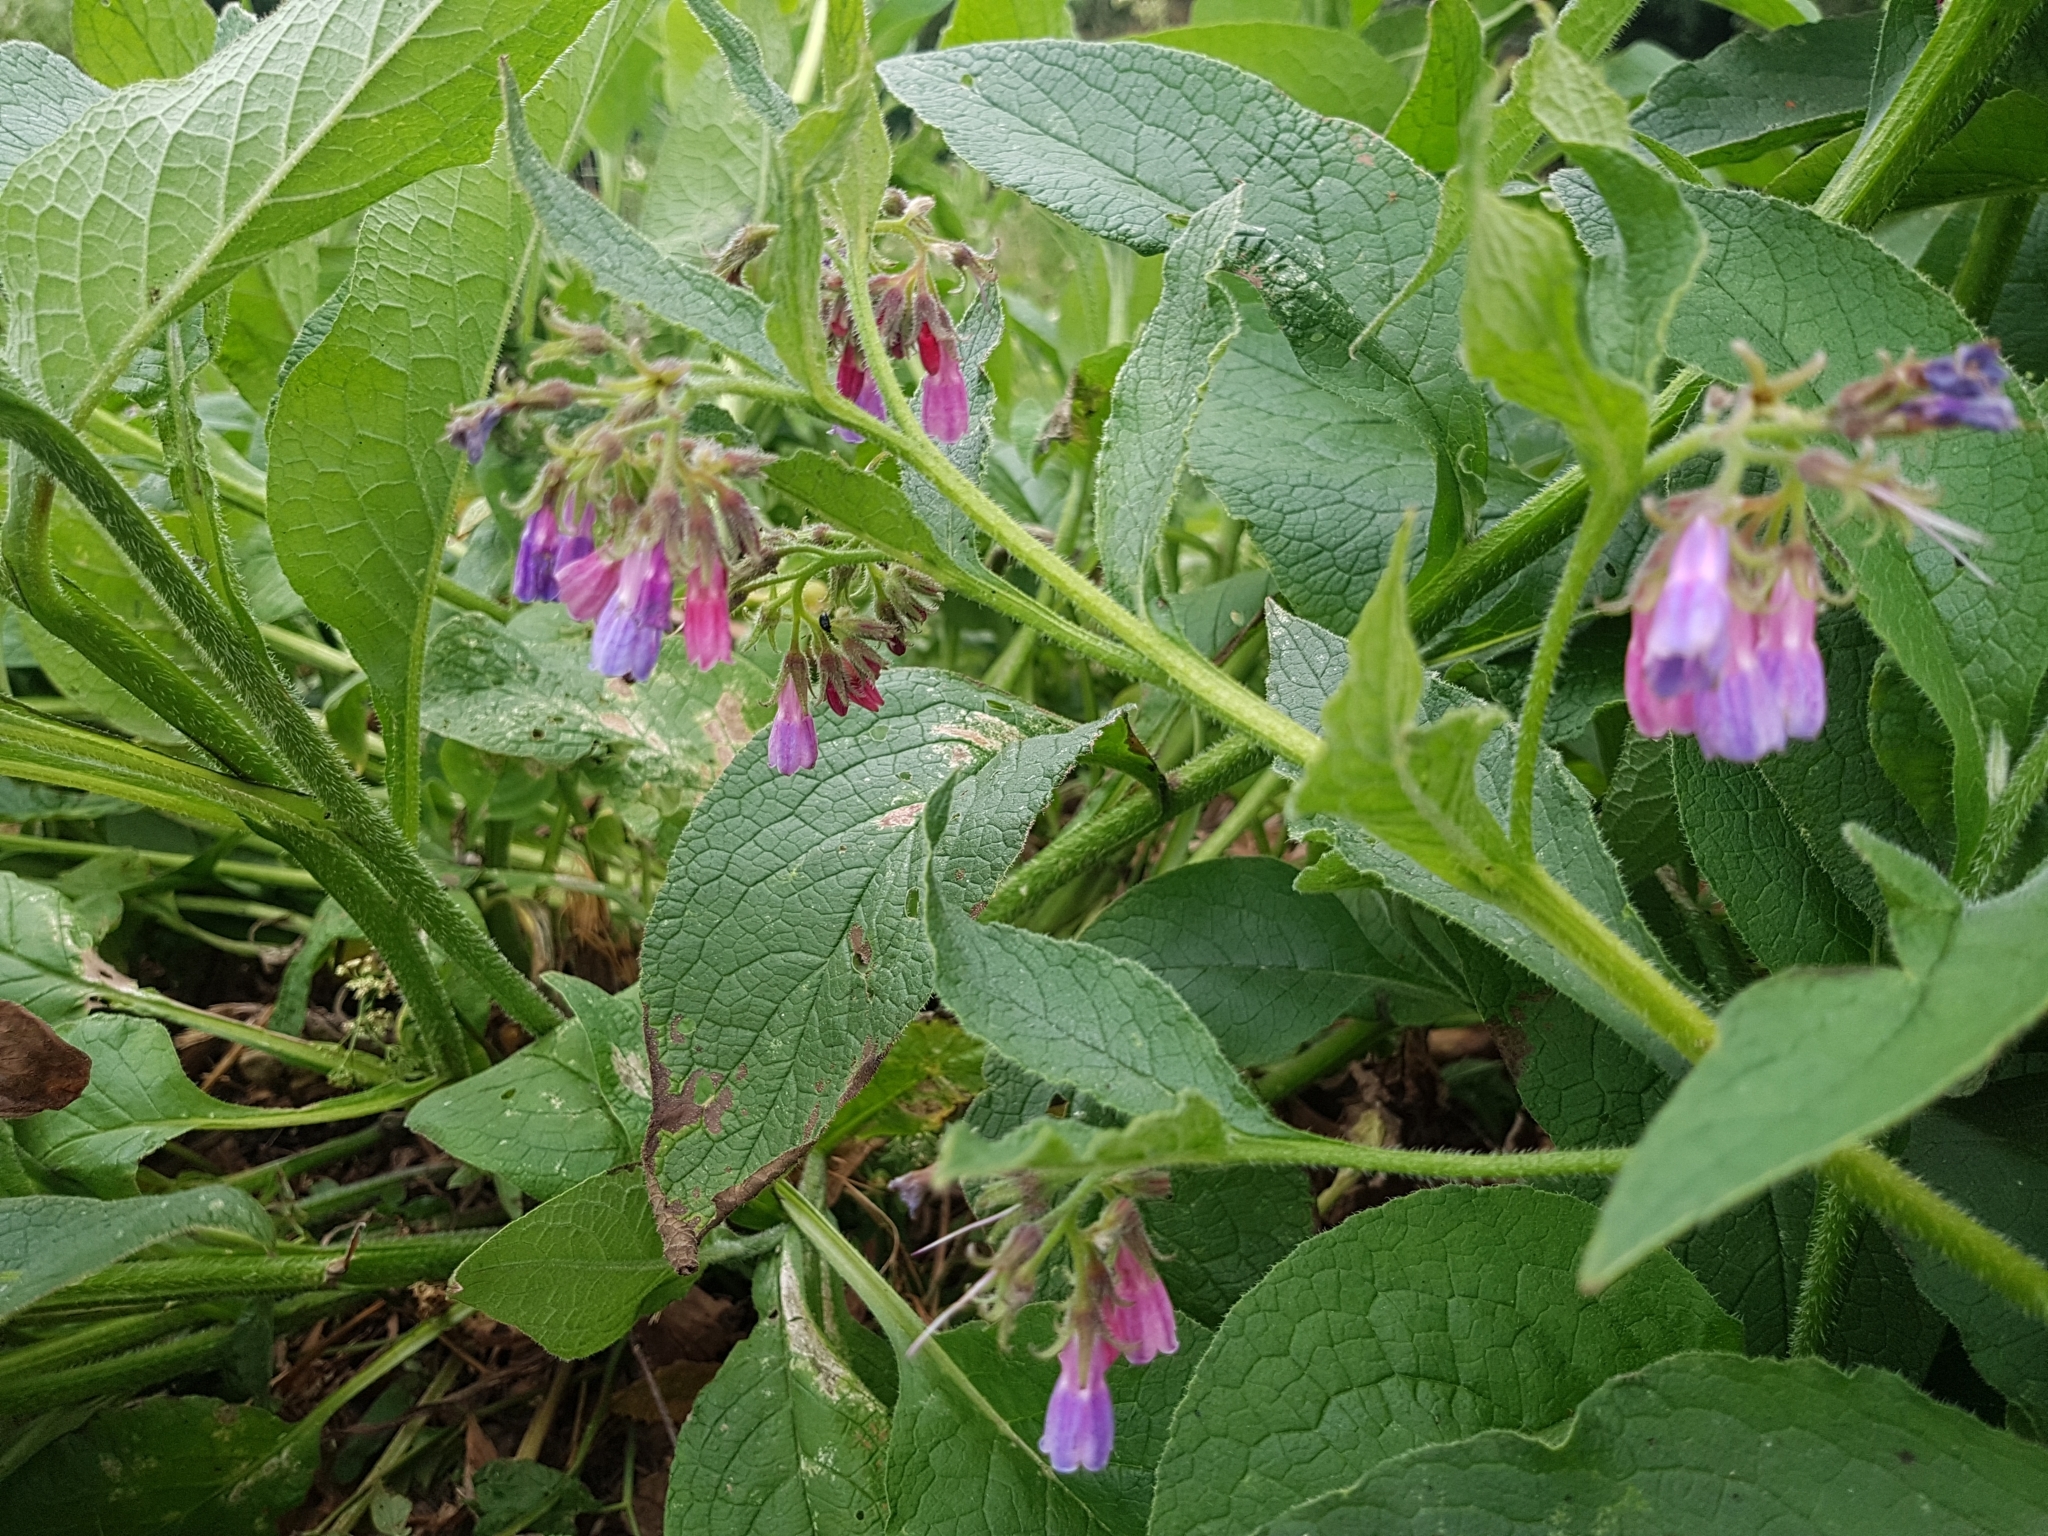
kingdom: Plantae
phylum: Tracheophyta
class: Magnoliopsida
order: Boraginales
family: Boraginaceae
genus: Symphytum
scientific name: Symphytum officinale
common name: Common comfrey
